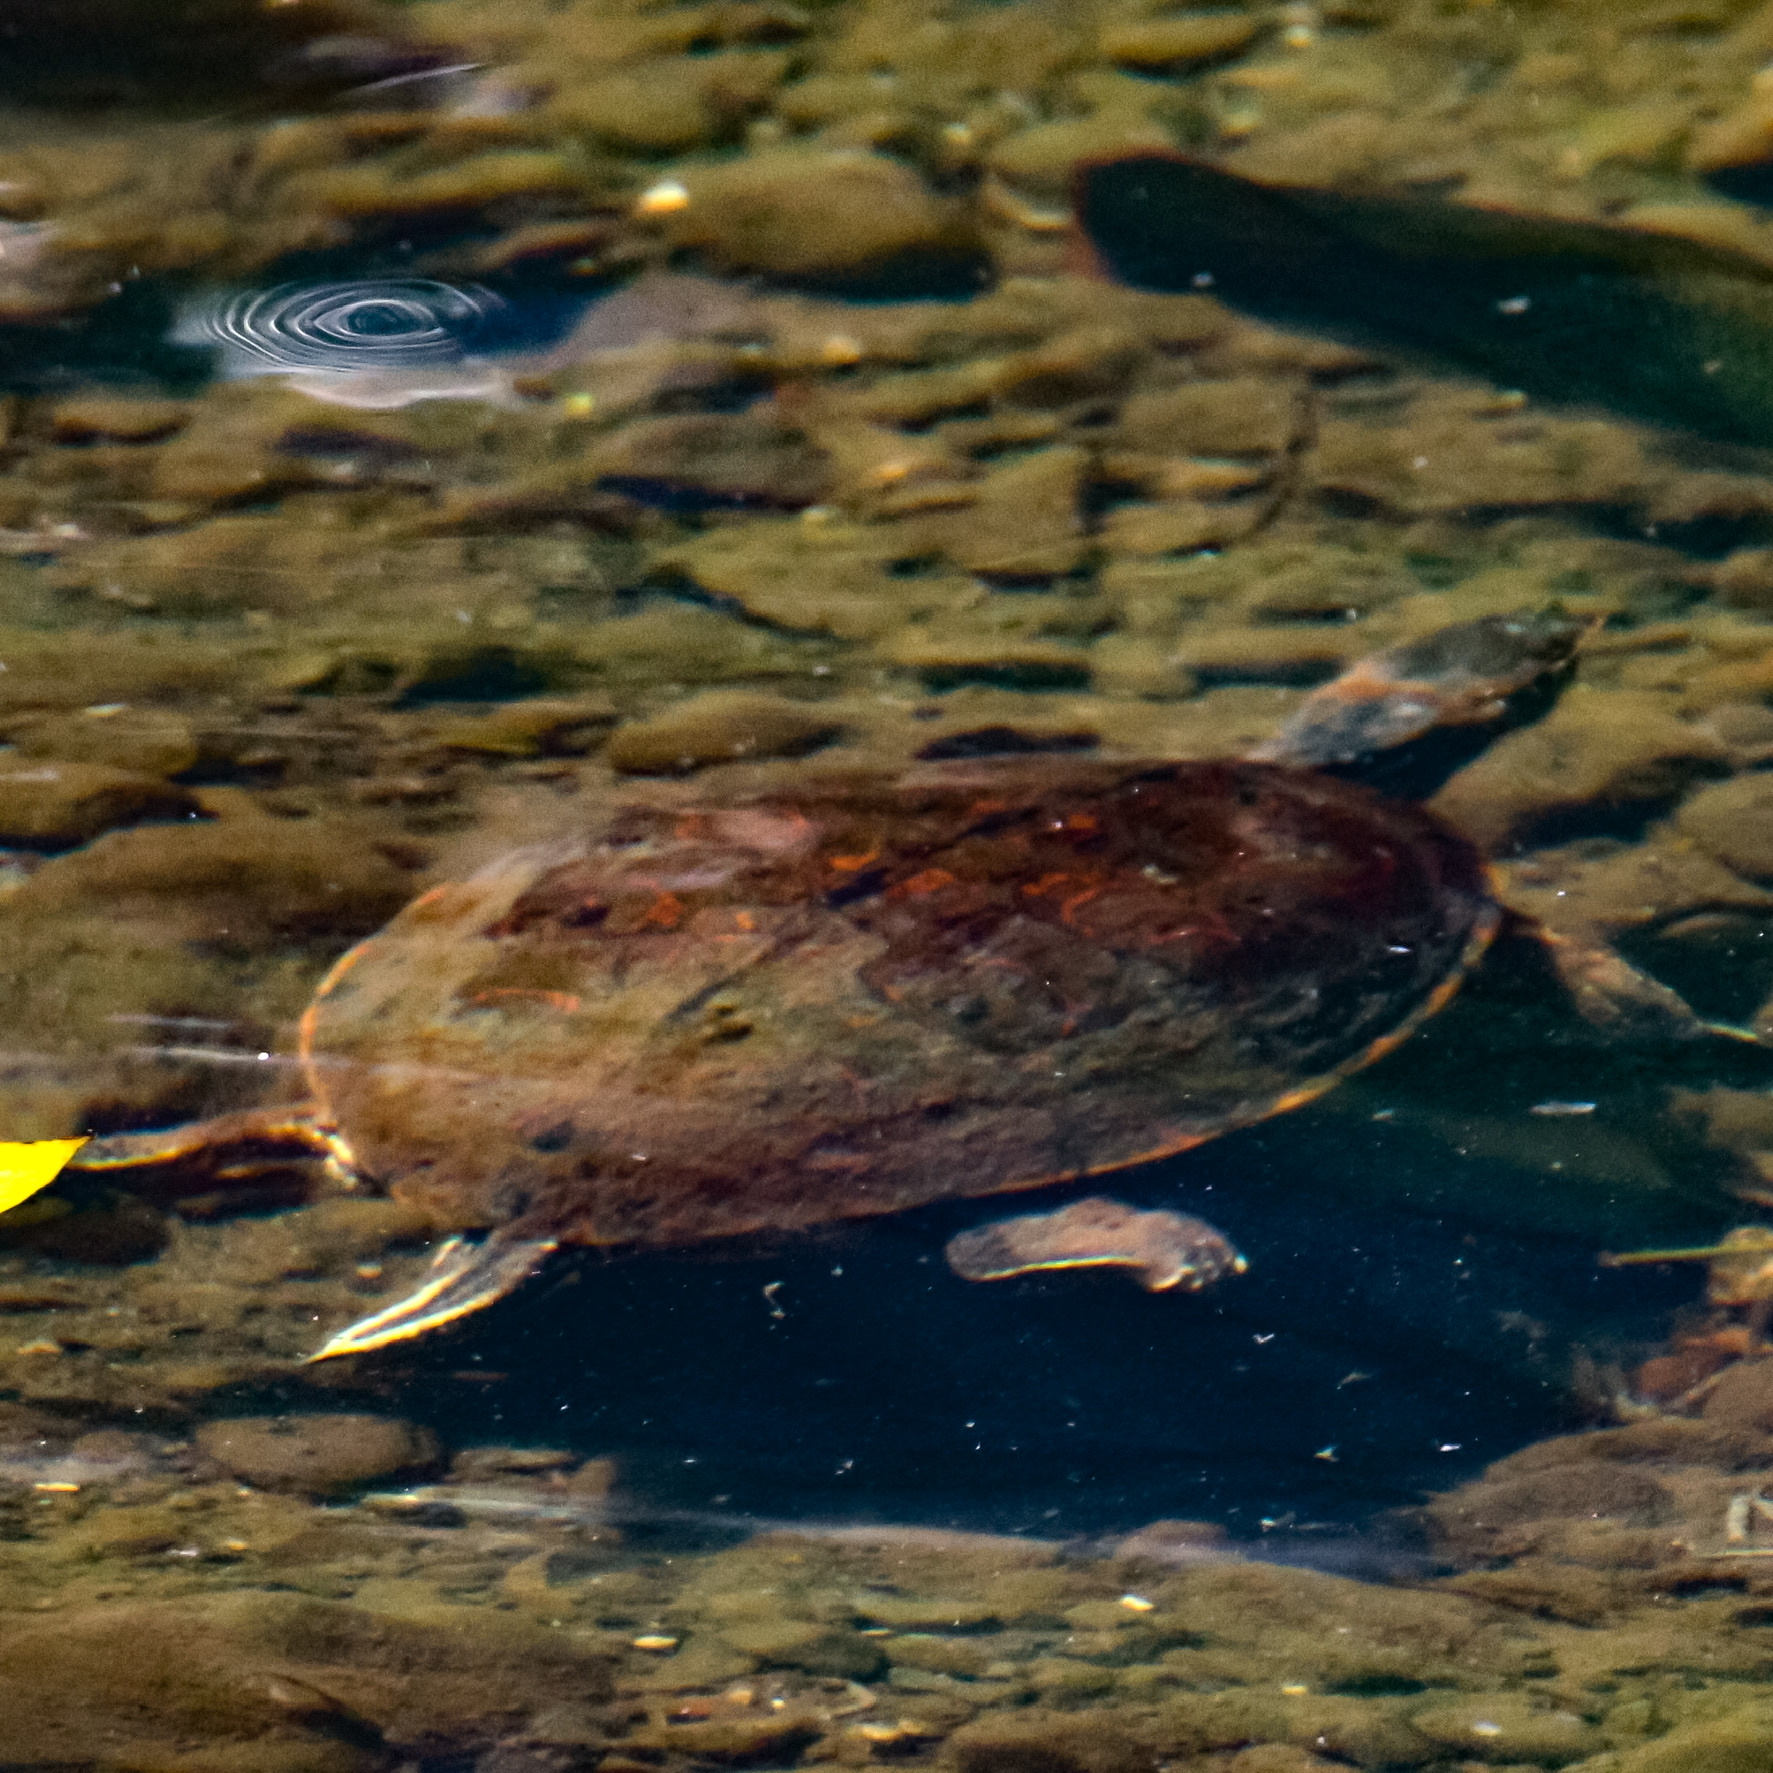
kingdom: Animalia
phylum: Chordata
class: Testudines
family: Emydidae
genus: Trachemys
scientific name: Trachemys venusta
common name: Mesoamerican slider
